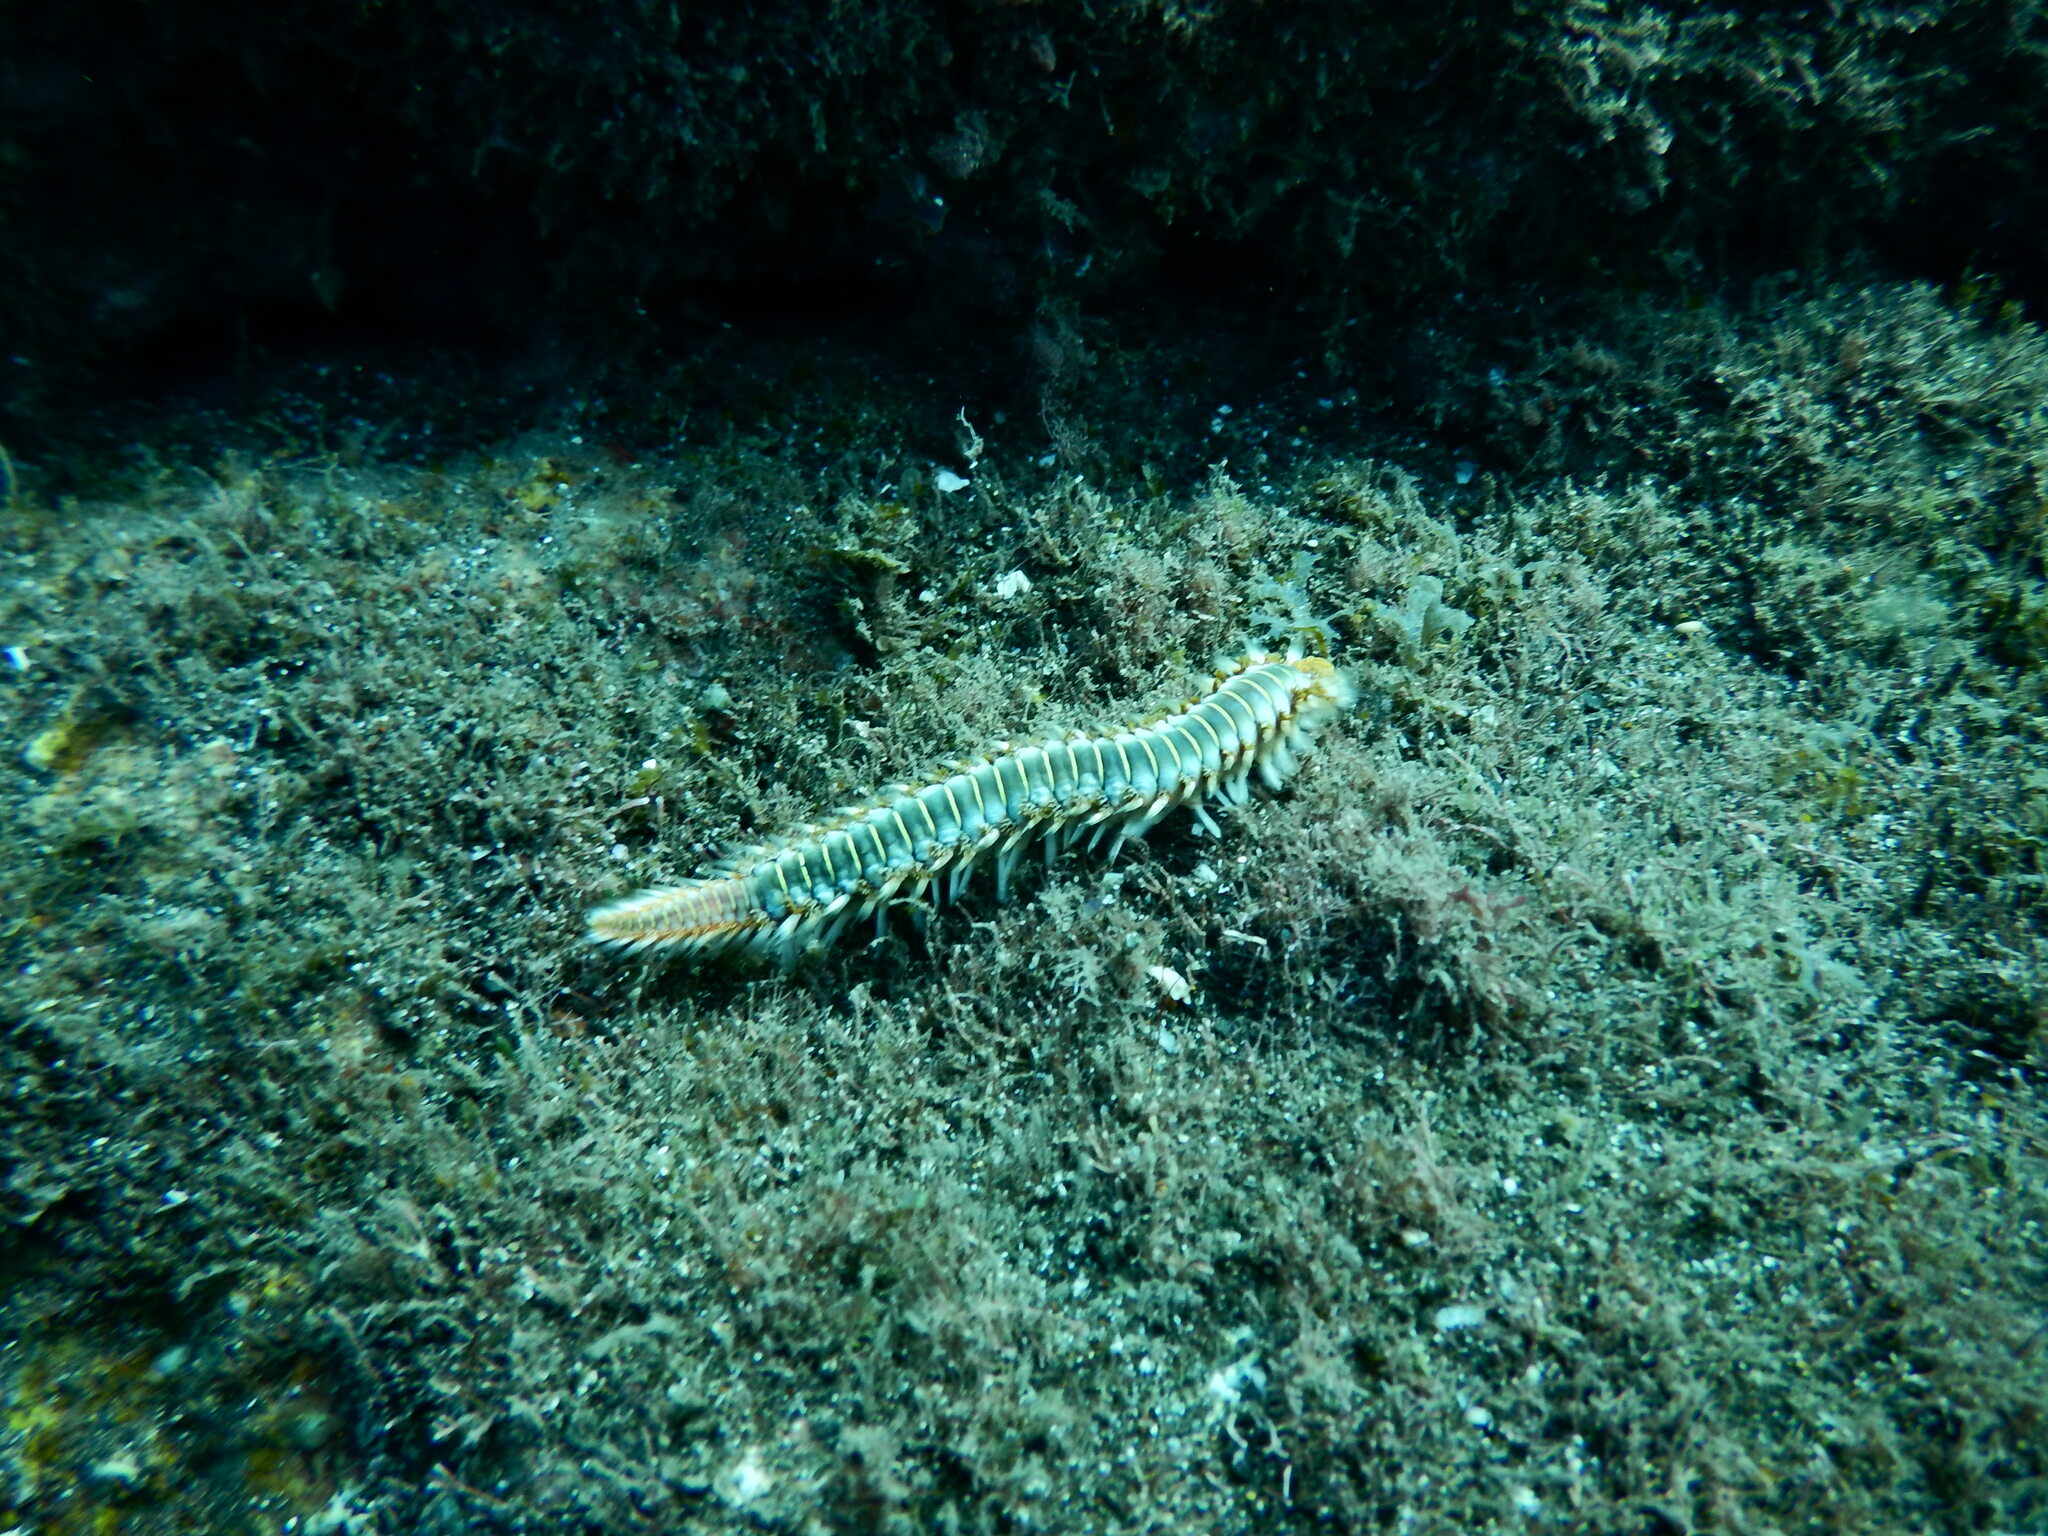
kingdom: Animalia
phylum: Annelida
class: Polychaeta
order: Amphinomida
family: Amphinomidae
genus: Hermodice
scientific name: Hermodice carunculata
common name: Bearded fireworm
